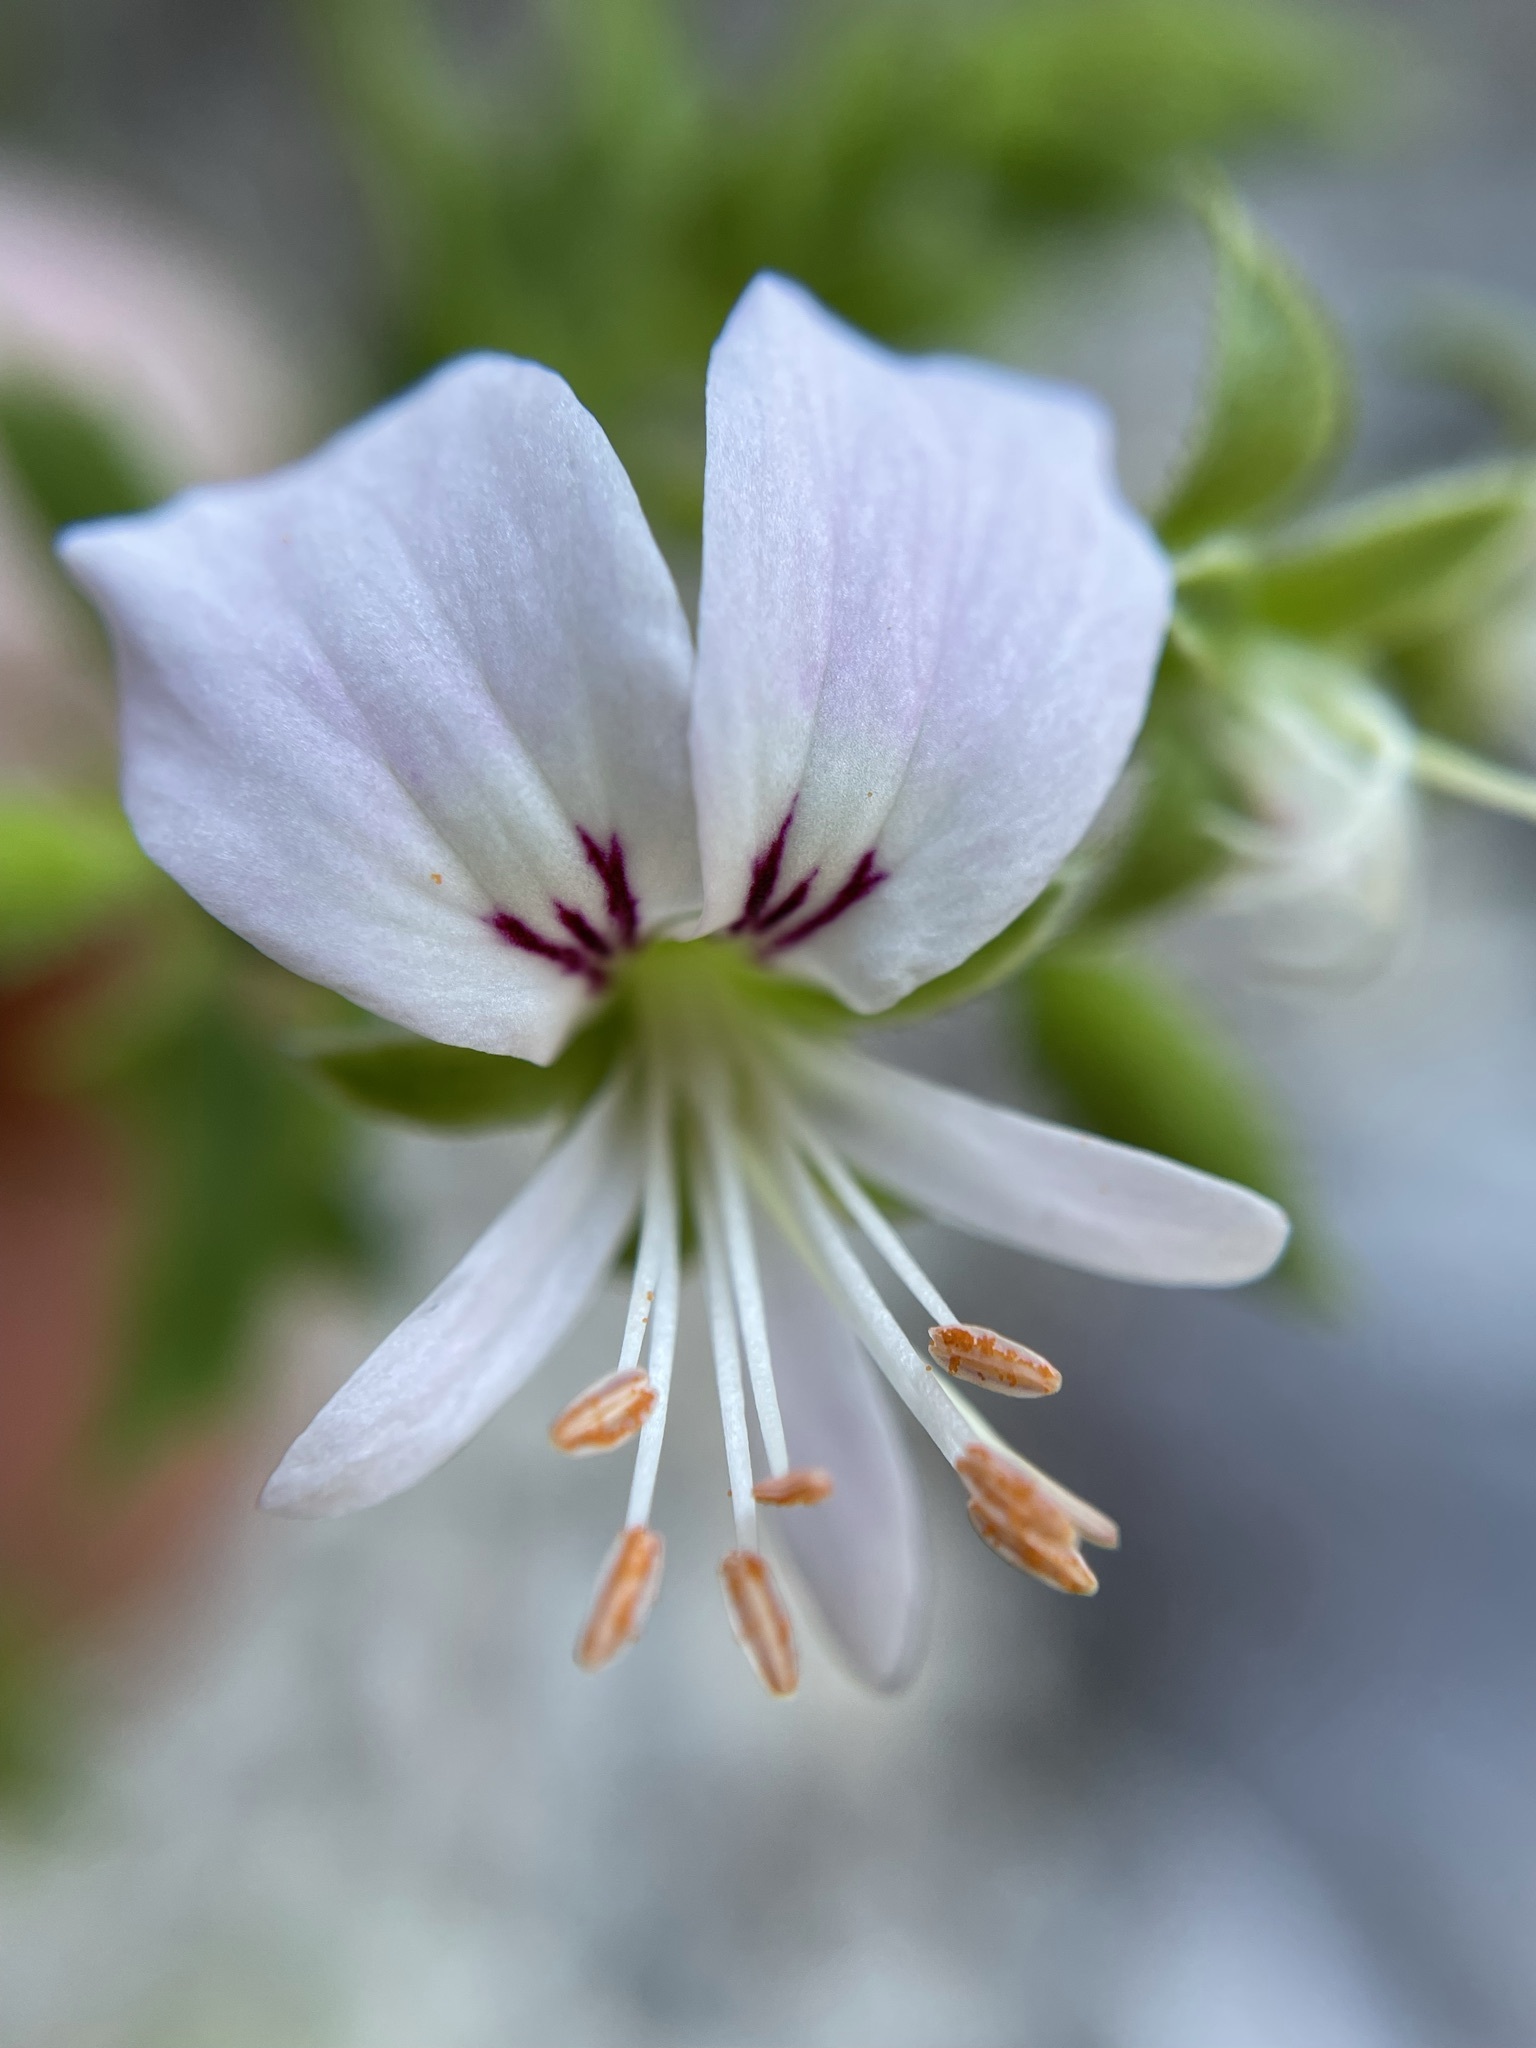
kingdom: Plantae
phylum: Tracheophyta
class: Magnoliopsida
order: Geraniales
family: Geraniaceae
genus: Pelargonium
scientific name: Pelargonium ribifolium
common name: Currant-leaf pelargonium
